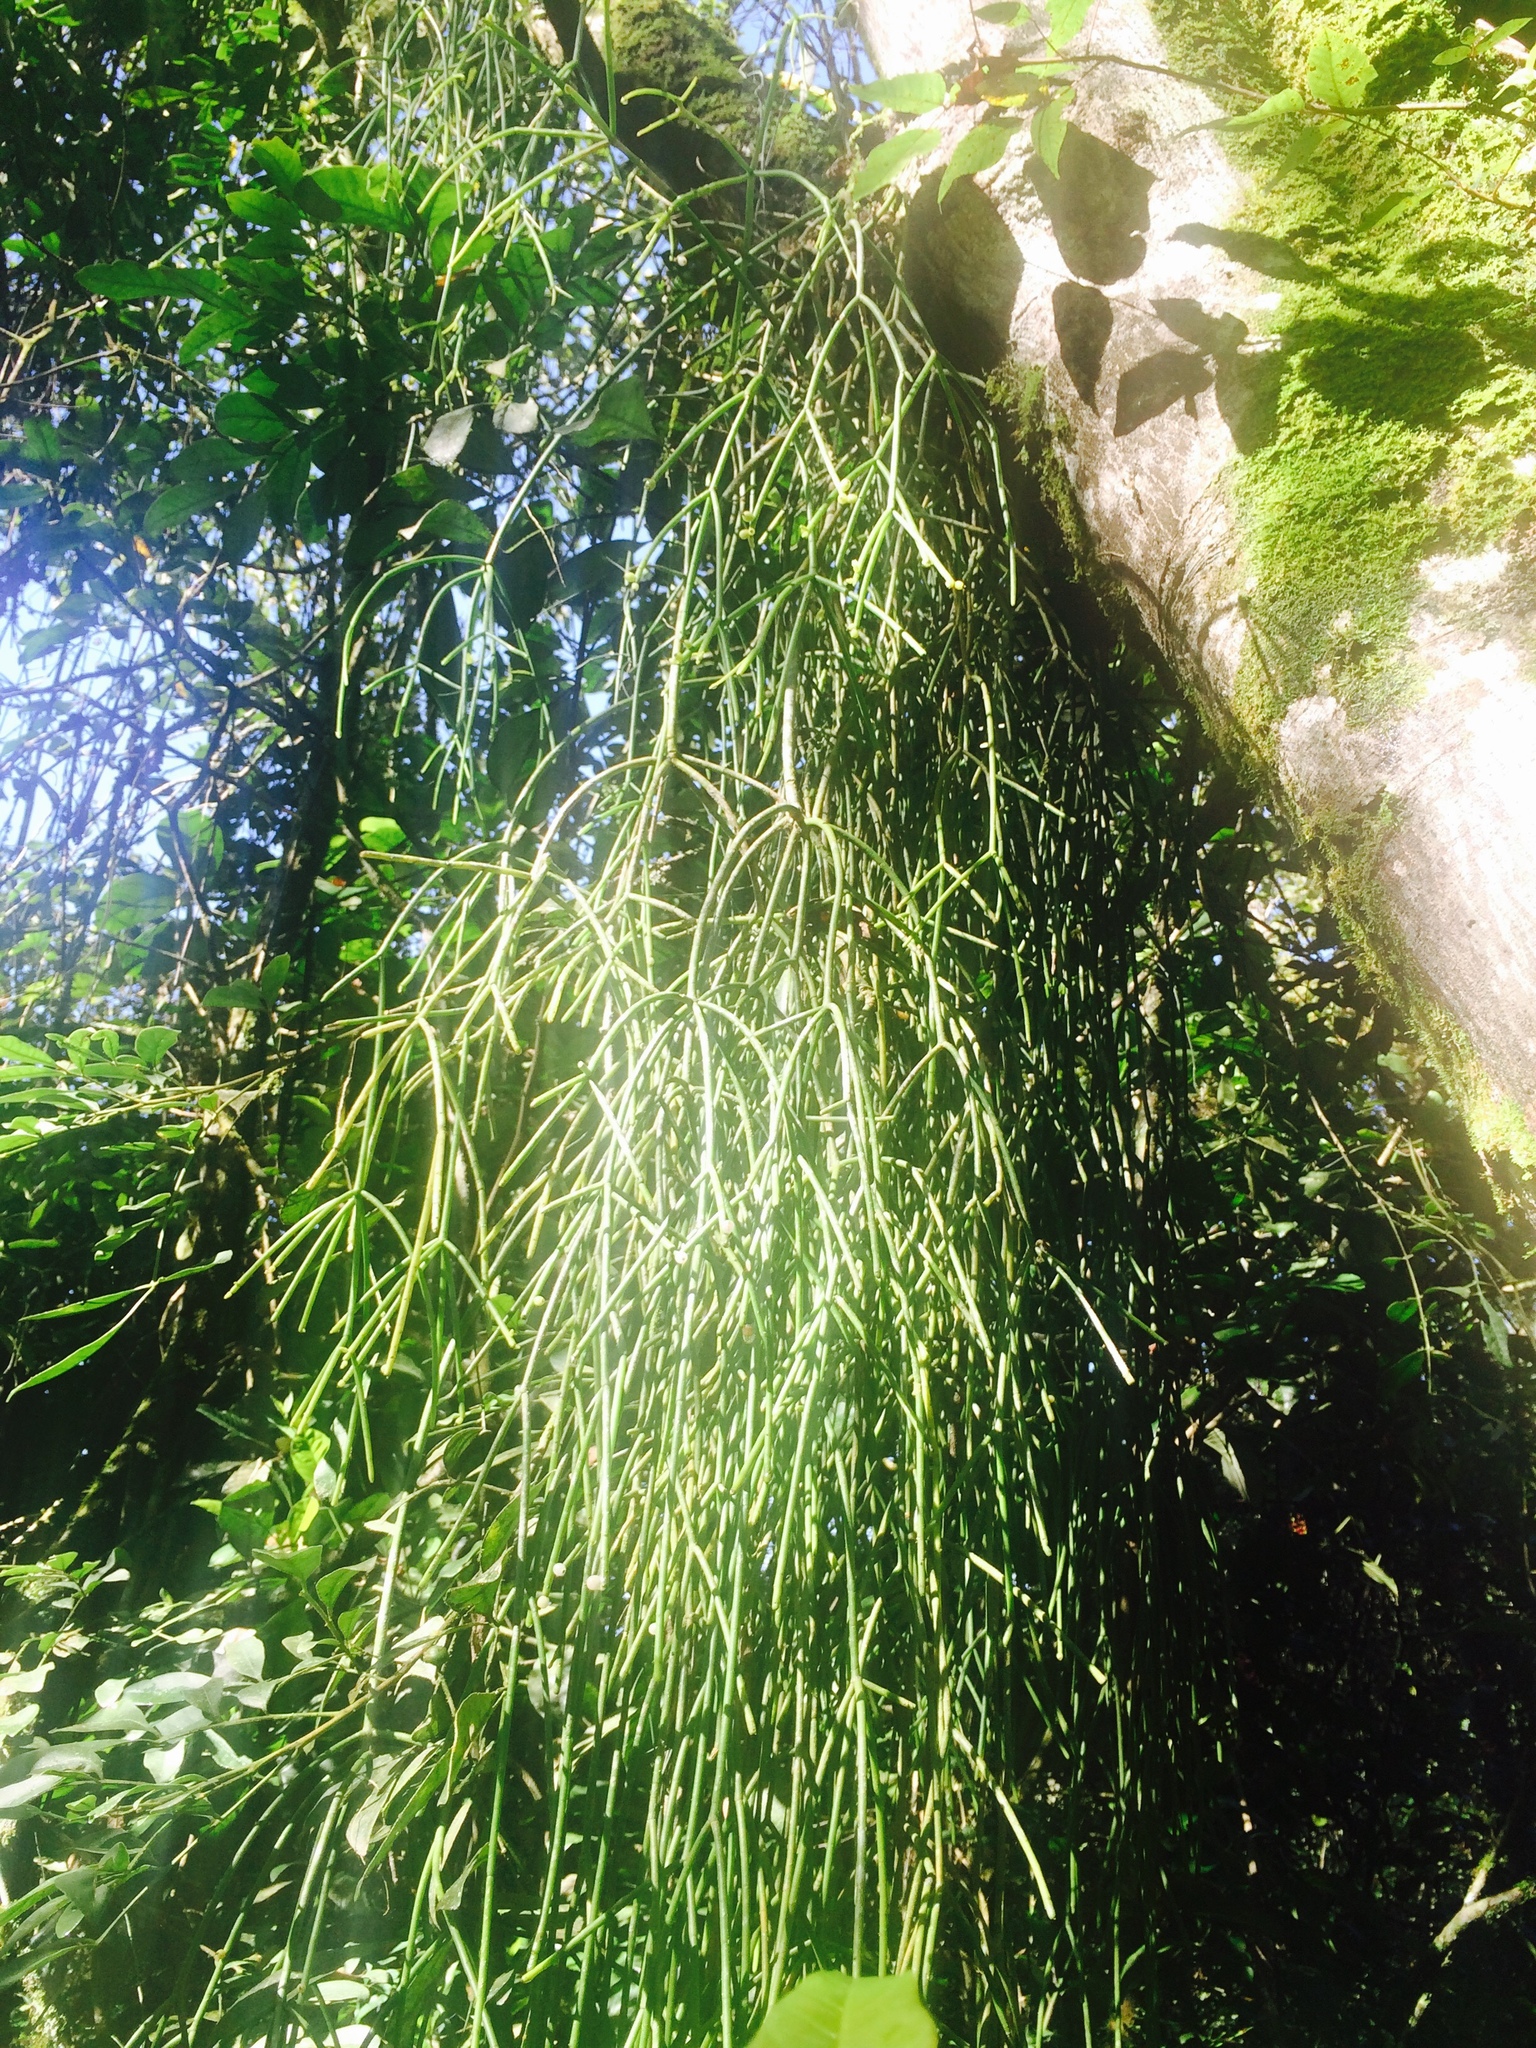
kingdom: Plantae
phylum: Tracheophyta
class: Magnoliopsida
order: Caryophyllales
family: Cactaceae
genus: Rhipsalis
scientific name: Rhipsalis baccifera
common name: Mistletoe cactus
